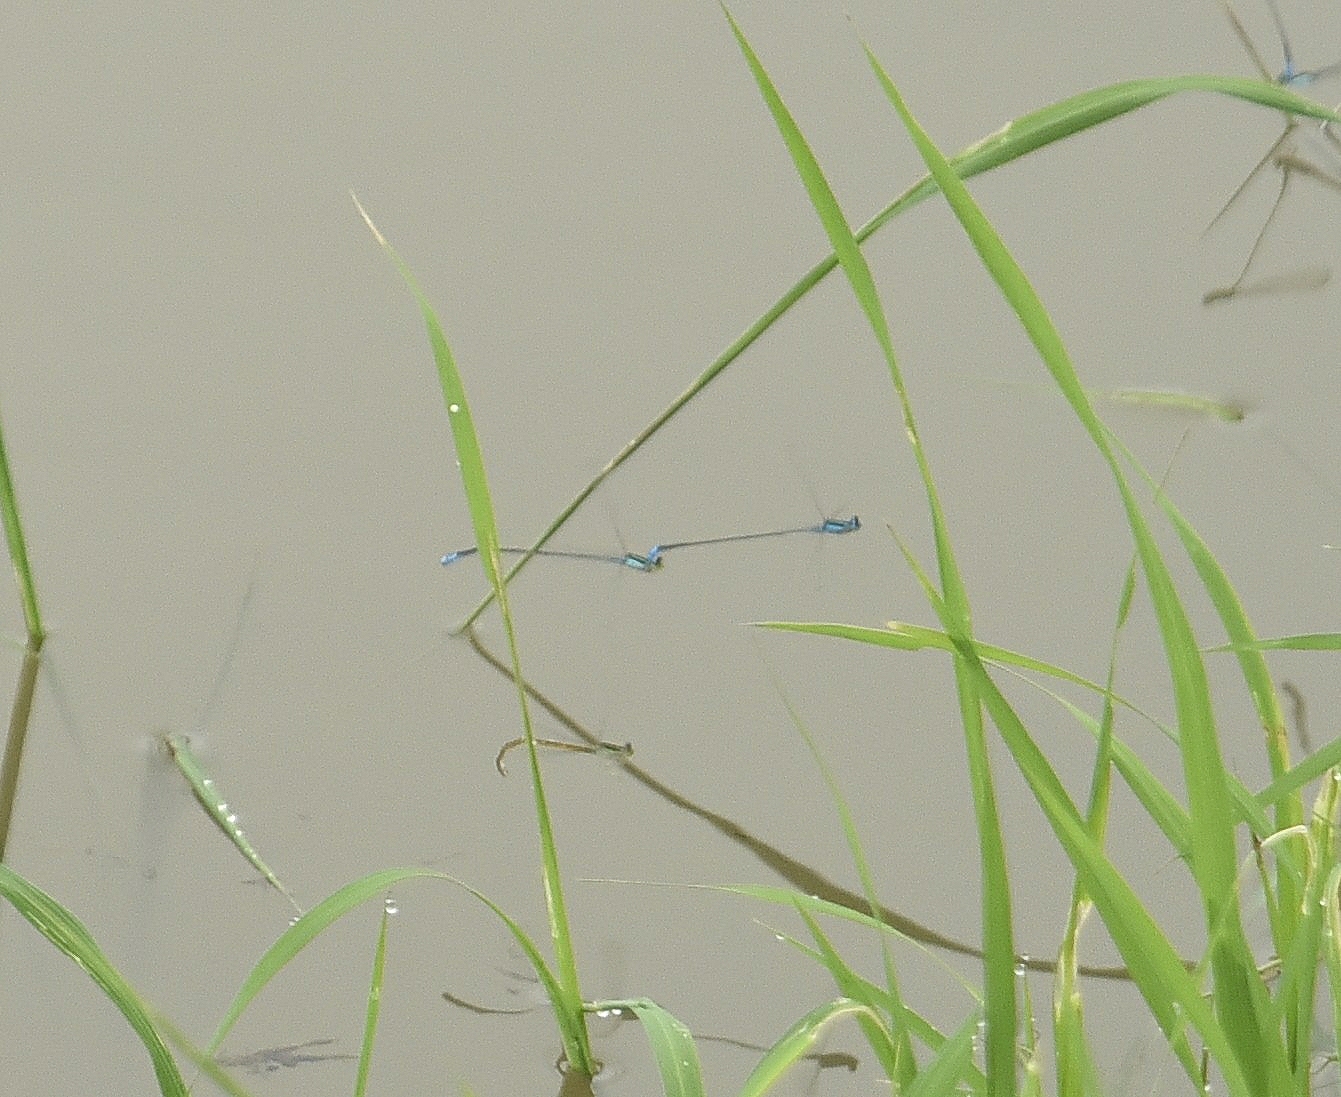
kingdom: Animalia
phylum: Arthropoda
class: Insecta
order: Odonata
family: Coenagrionidae
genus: Aciagrion
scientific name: Aciagrion occidentale
